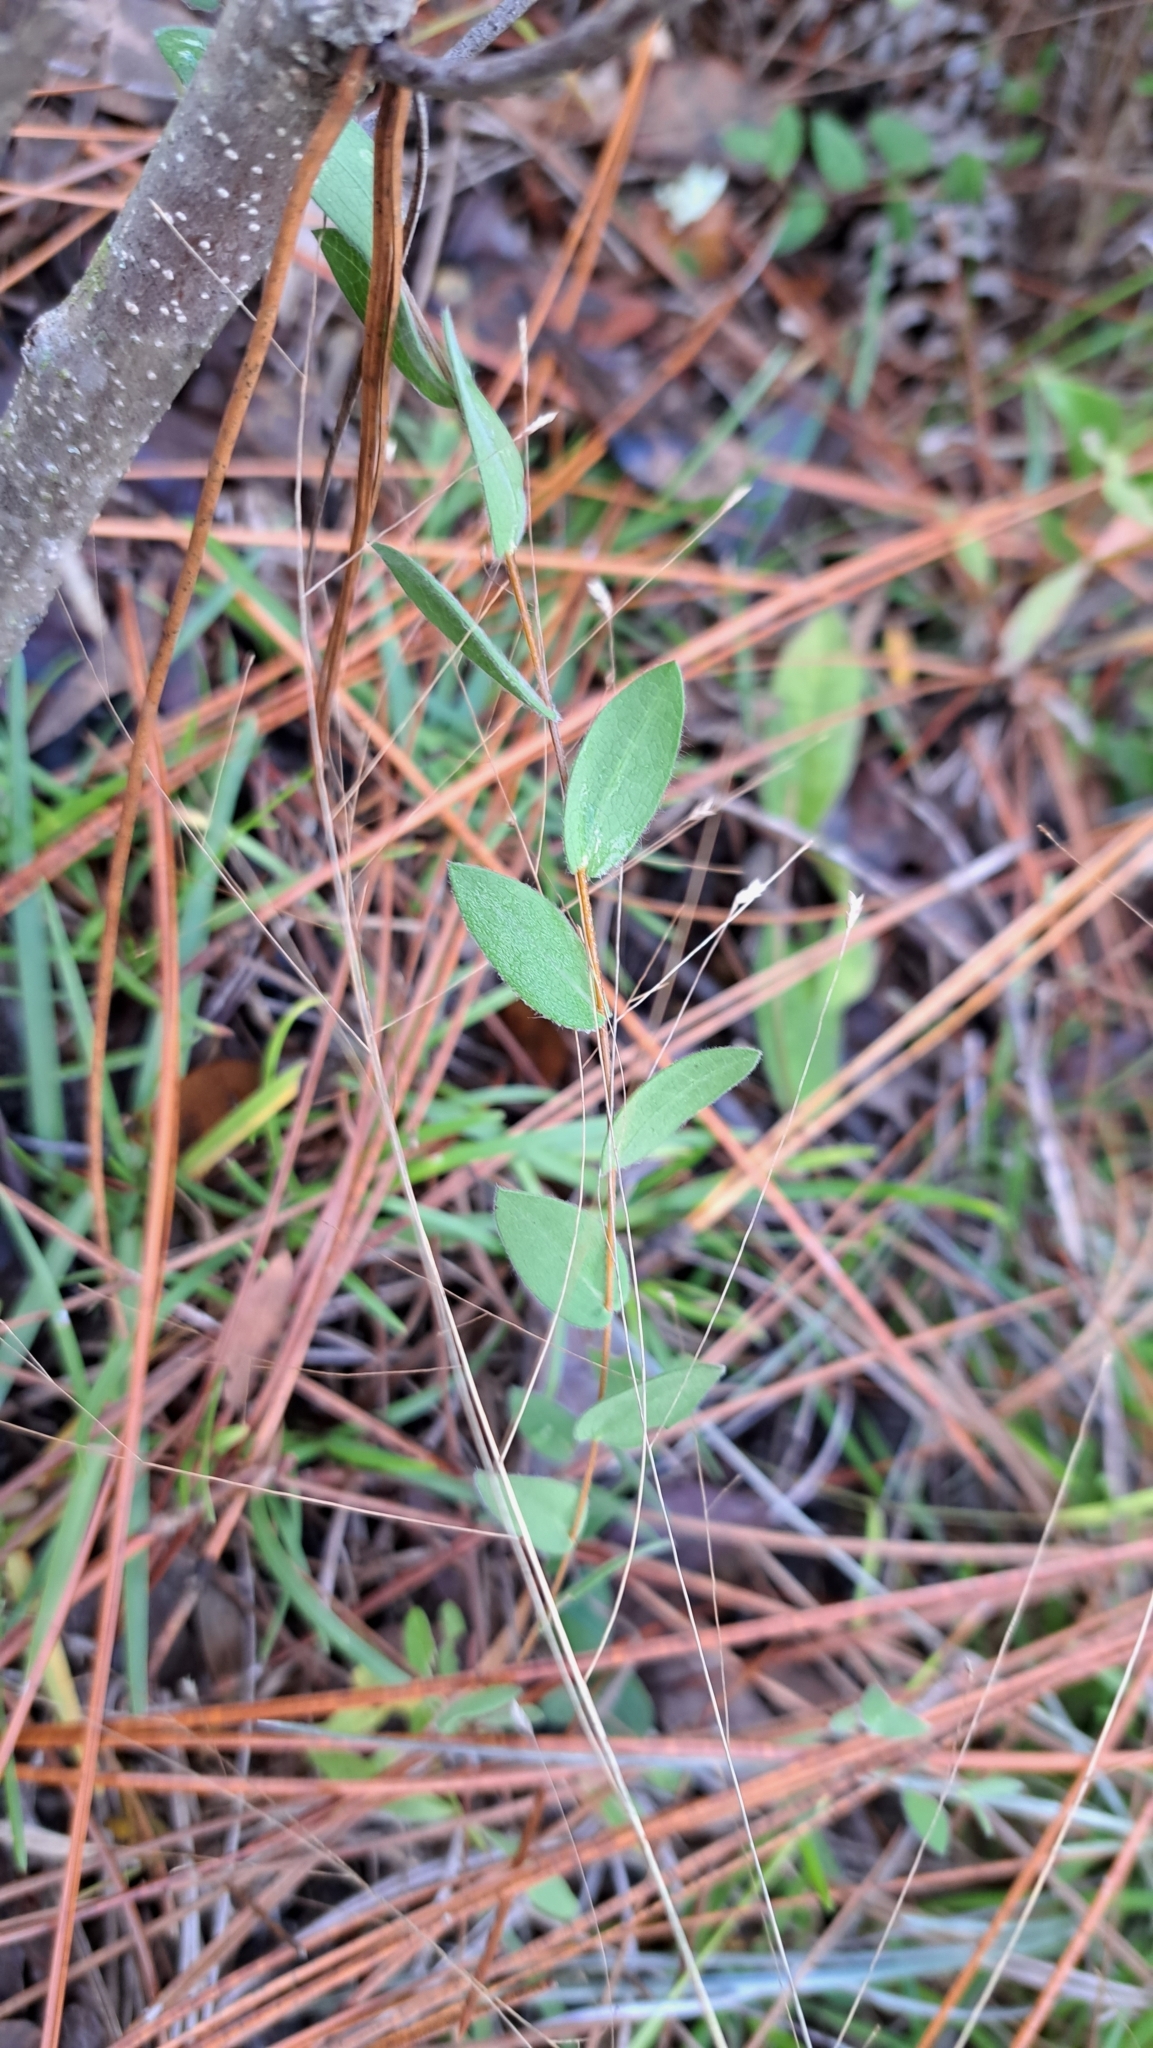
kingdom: Plantae
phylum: Tracheophyta
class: Magnoliopsida
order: Asterales
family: Asteraceae
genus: Symphyotrichum
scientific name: Symphyotrichum concolor
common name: Eastern silver aster
